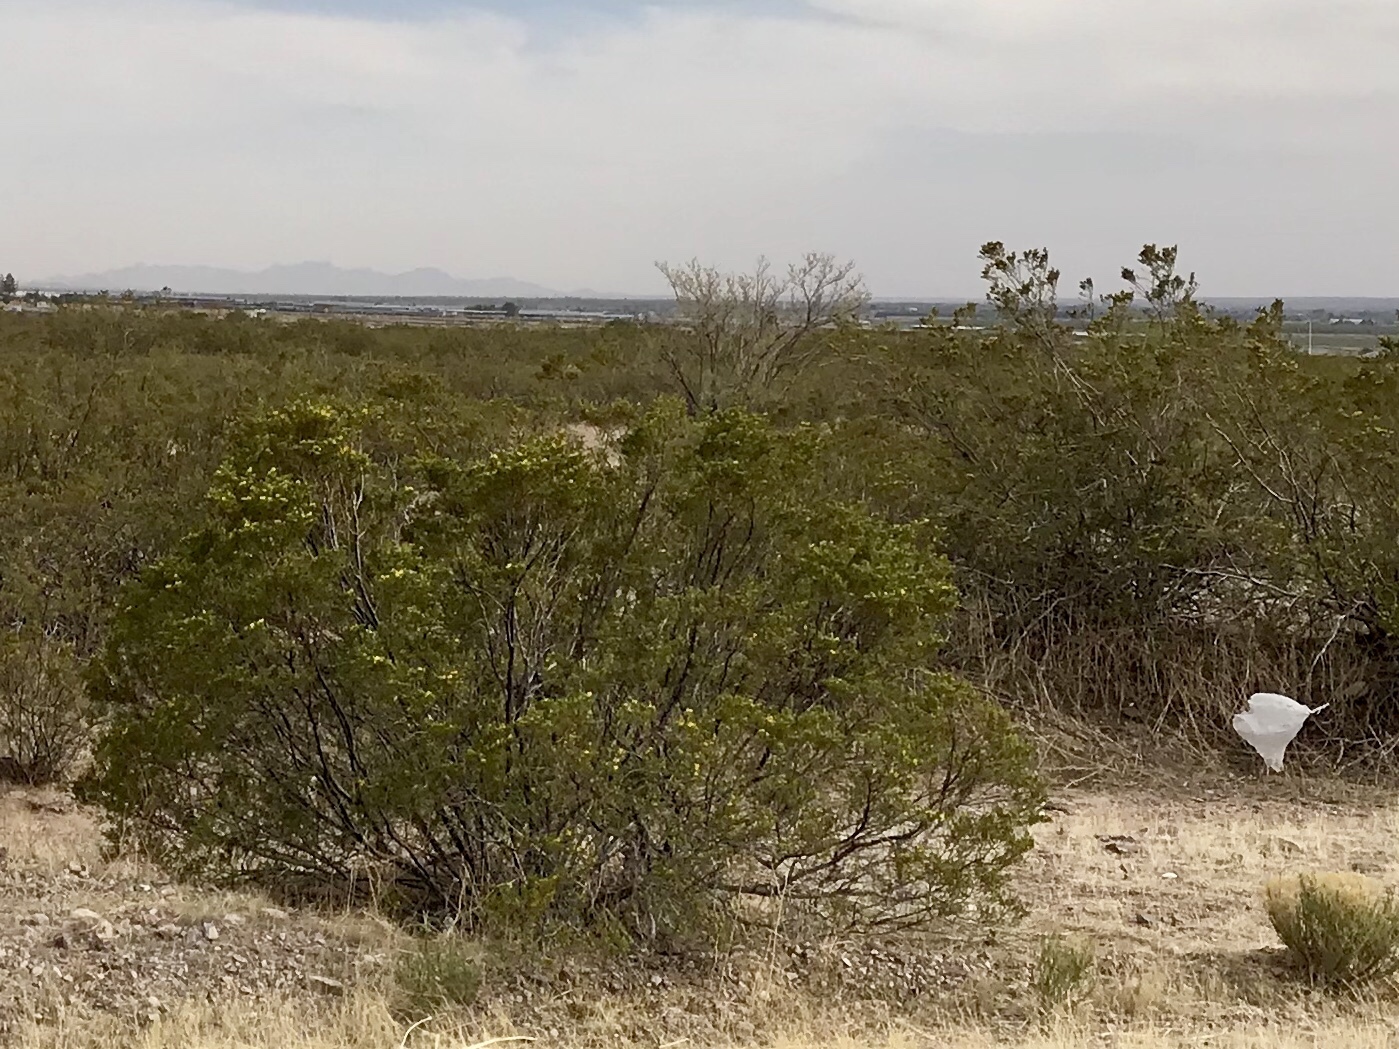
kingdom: Plantae
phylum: Tracheophyta
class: Magnoliopsida
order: Zygophyllales
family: Zygophyllaceae
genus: Larrea
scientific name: Larrea tridentata
